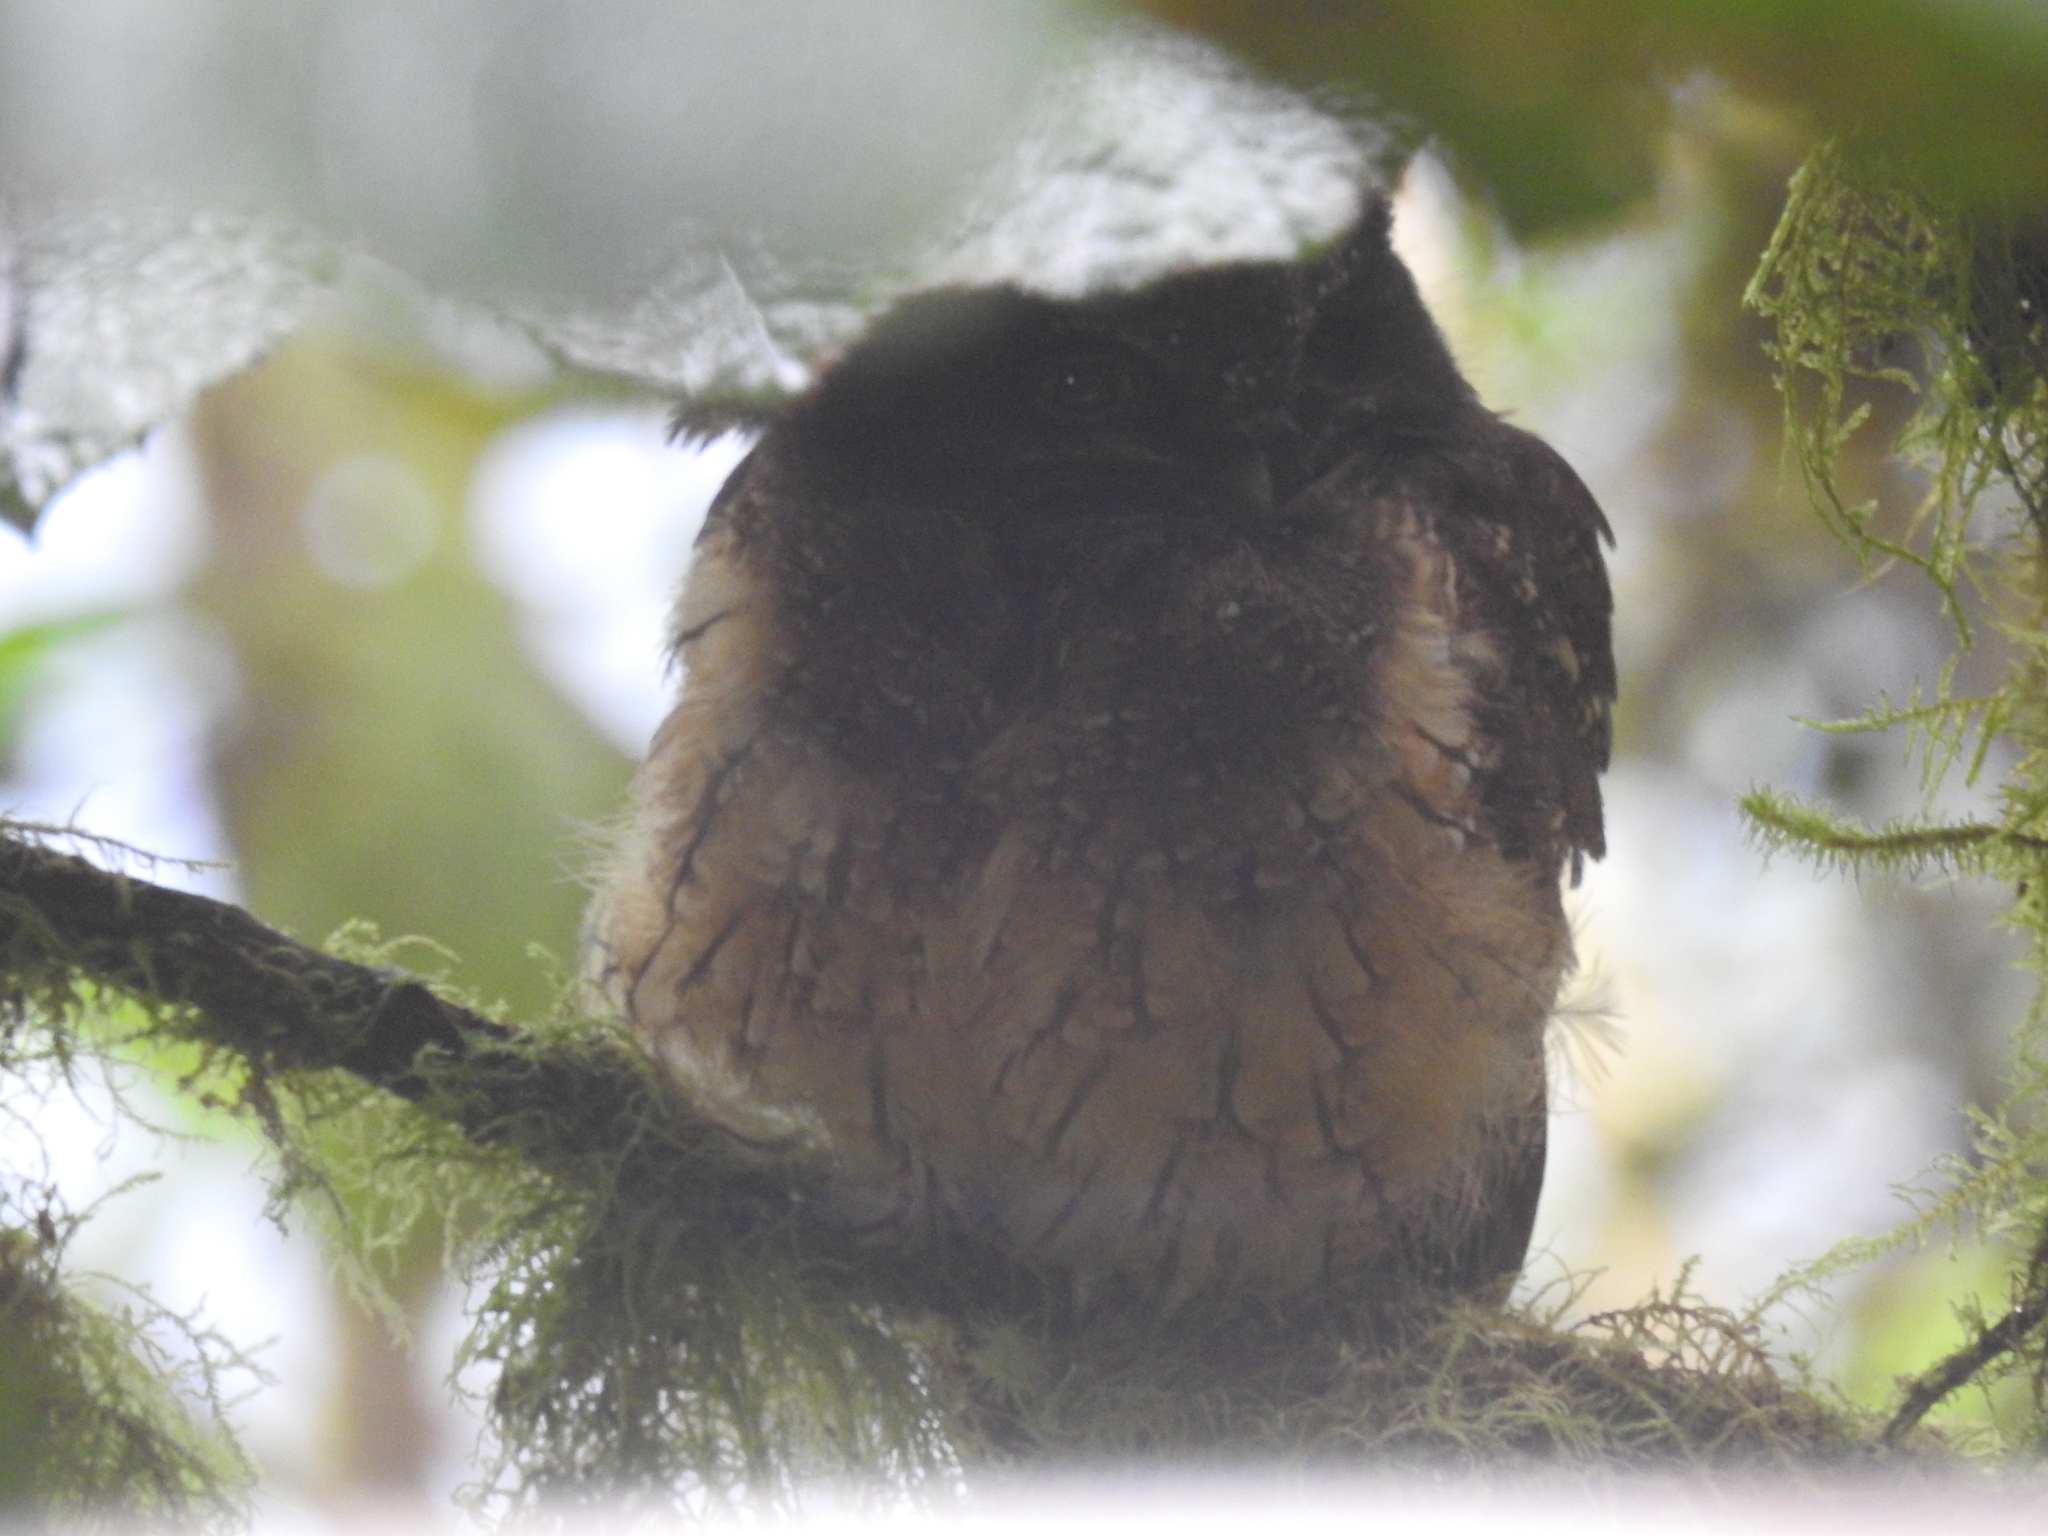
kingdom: Animalia
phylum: Chordata
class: Aves
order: Strigiformes
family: Strigidae
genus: Megascops
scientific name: Megascops albogularis
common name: White-throated screech owl
